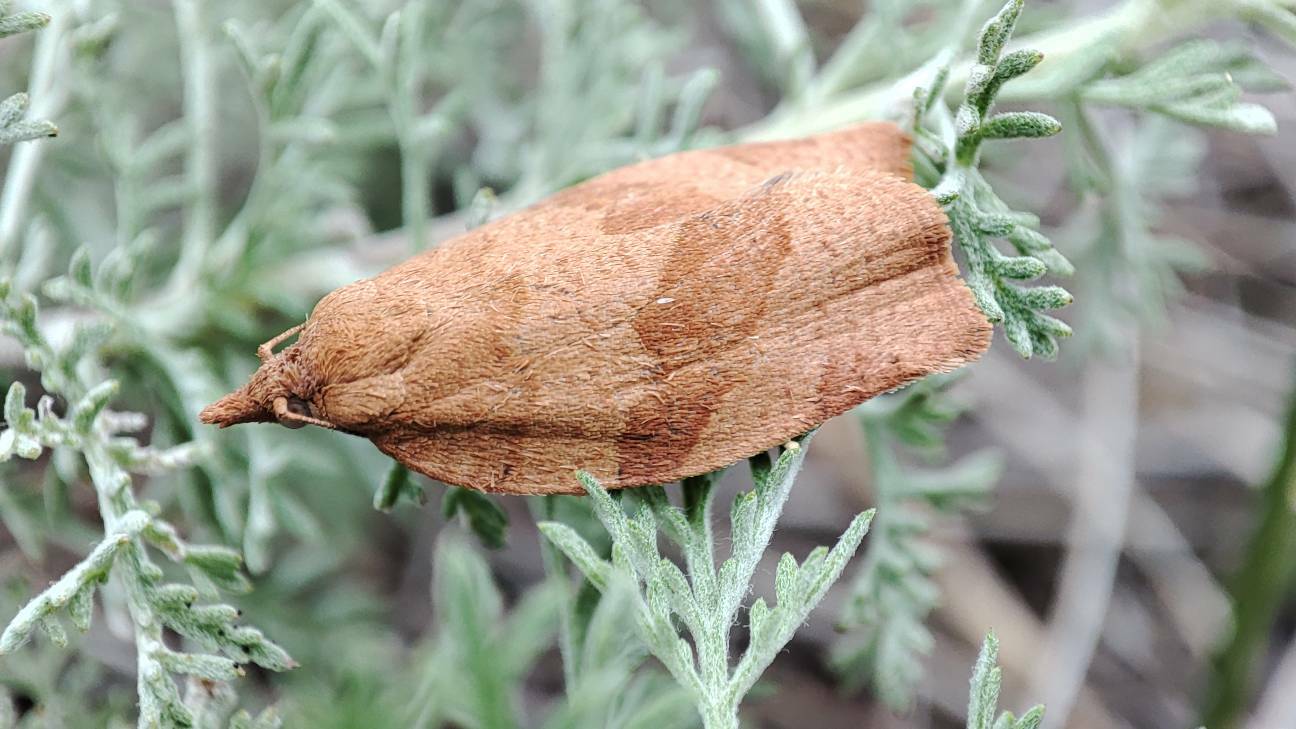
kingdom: Animalia
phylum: Arthropoda
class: Insecta
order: Lepidoptera
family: Tortricidae
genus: Pandemis
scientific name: Pandemis heparana
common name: Dark fruit-tree tortrix
